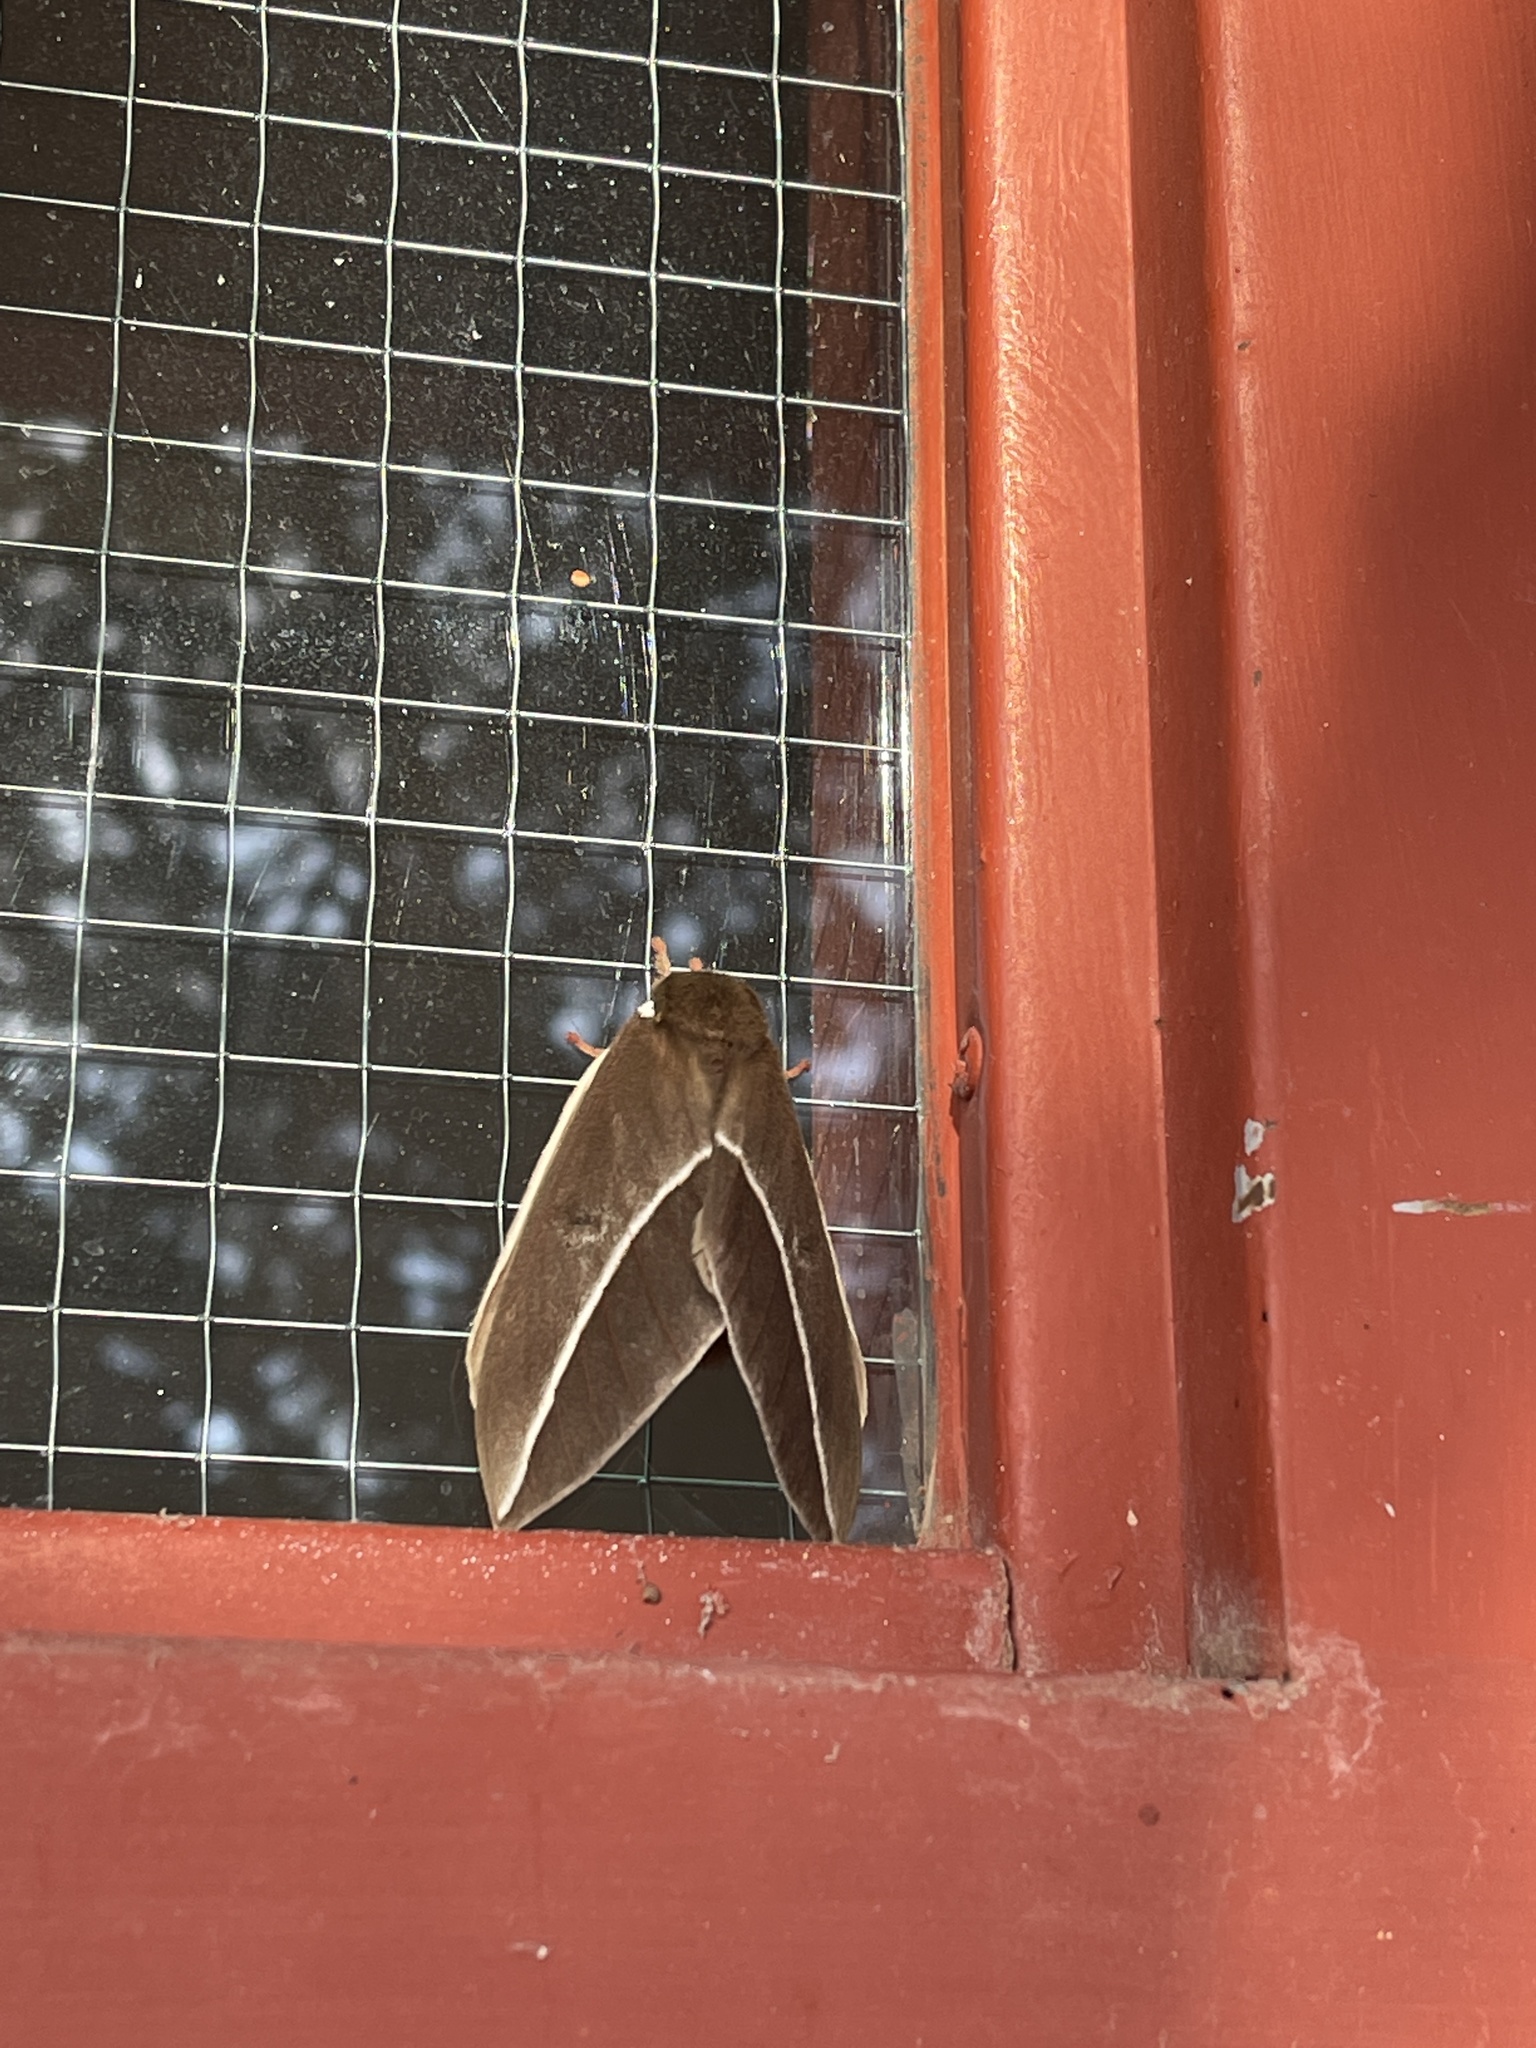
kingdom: Animalia
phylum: Arthropoda
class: Insecta
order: Lepidoptera
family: Saturniidae
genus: Automeris
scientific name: Automeris zephyria
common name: Zephyr eyed silkmoth
